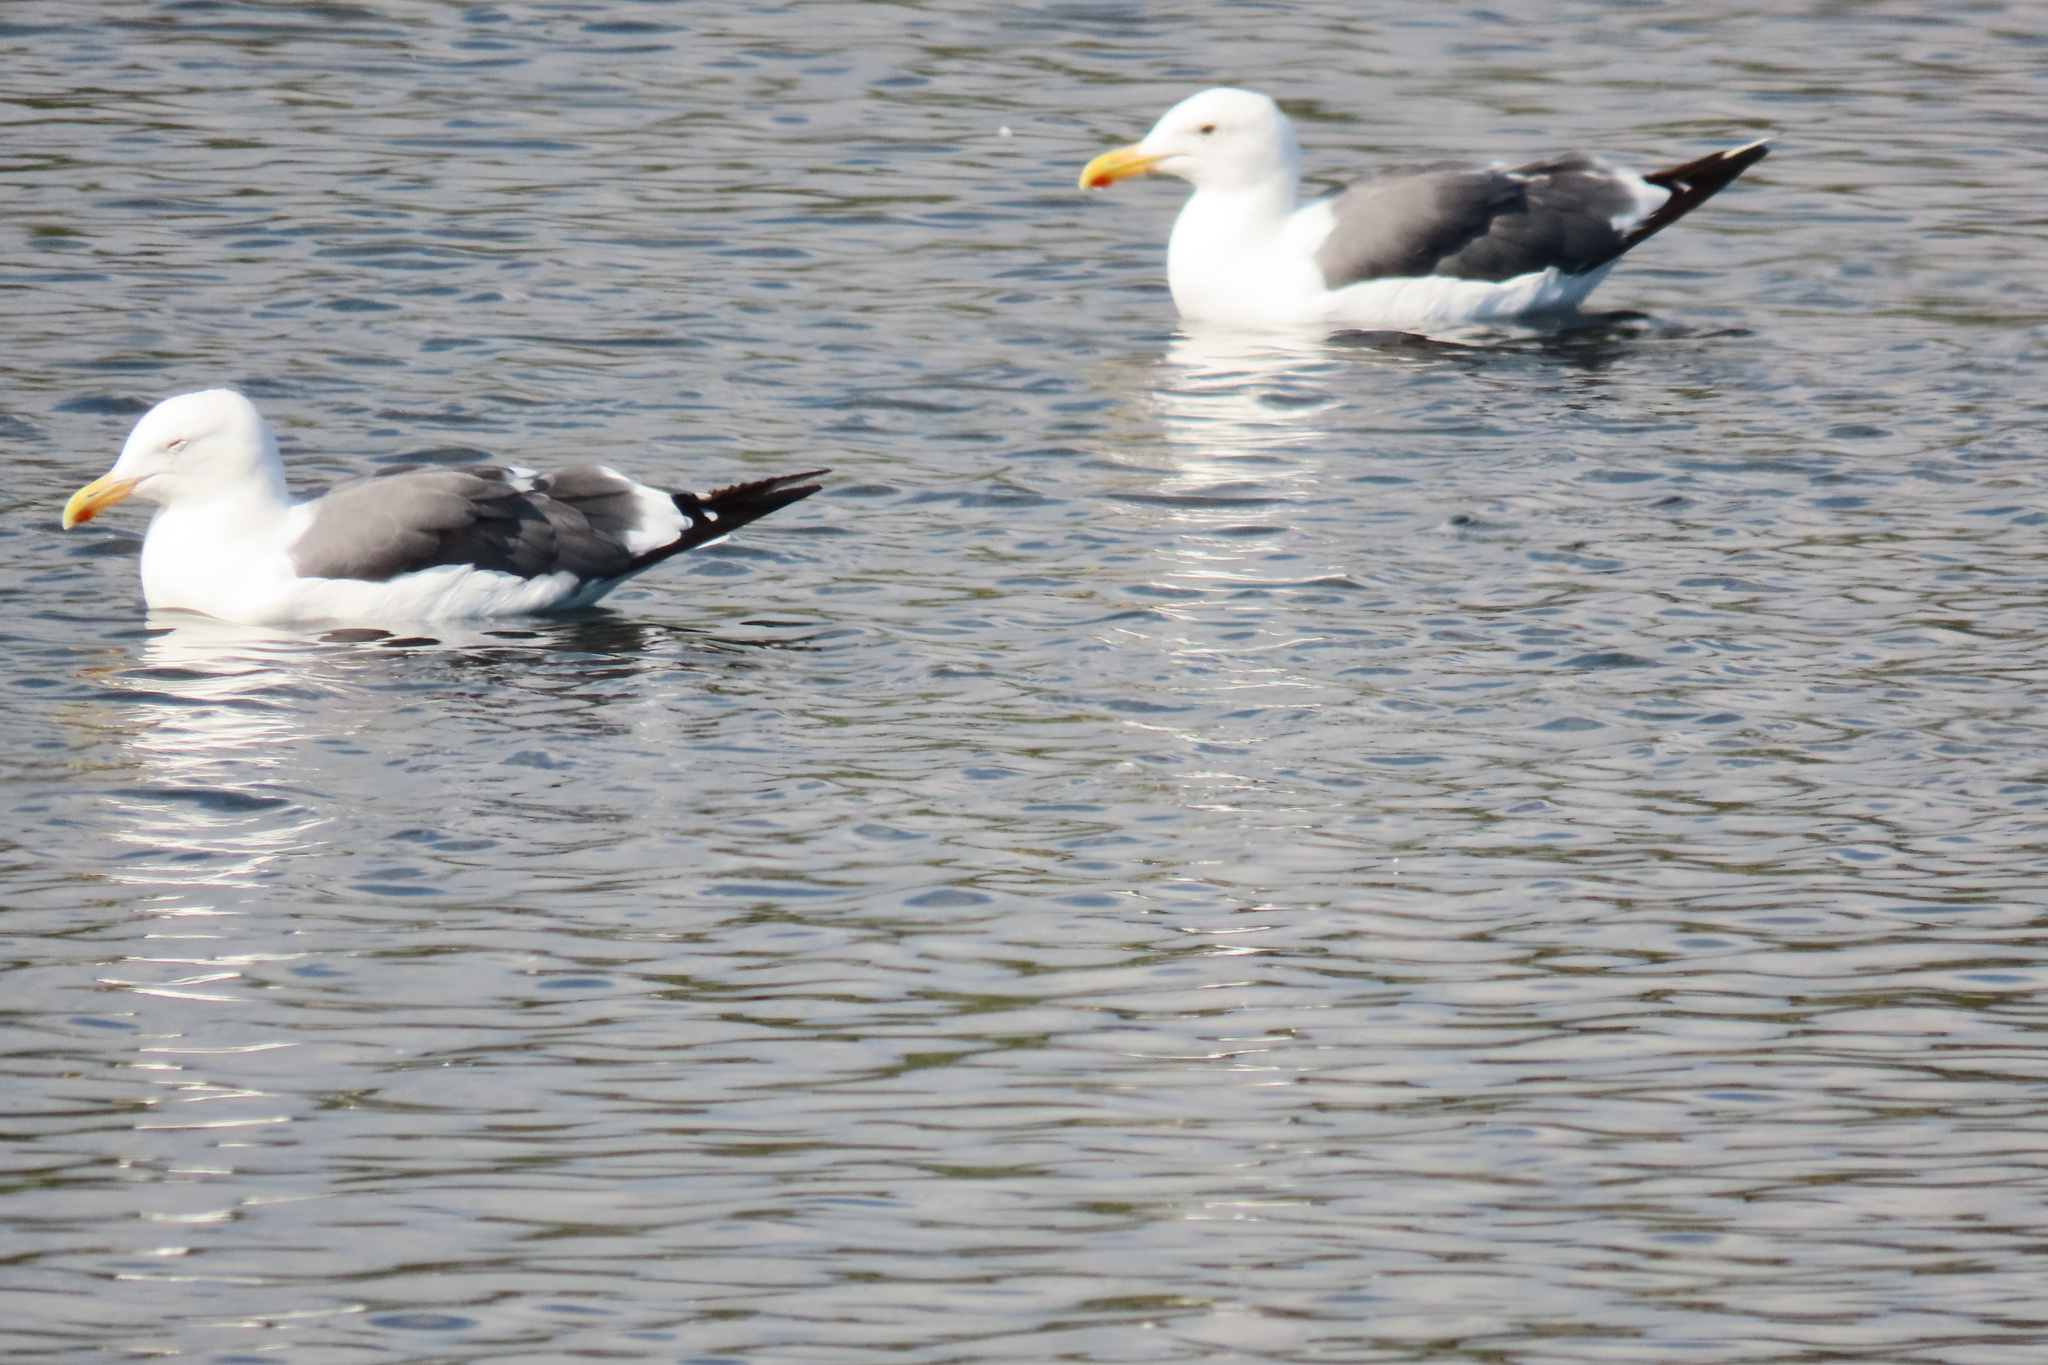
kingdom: Animalia
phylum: Chordata
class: Aves
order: Charadriiformes
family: Laridae
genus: Larus
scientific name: Larus occidentalis
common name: Western gull
